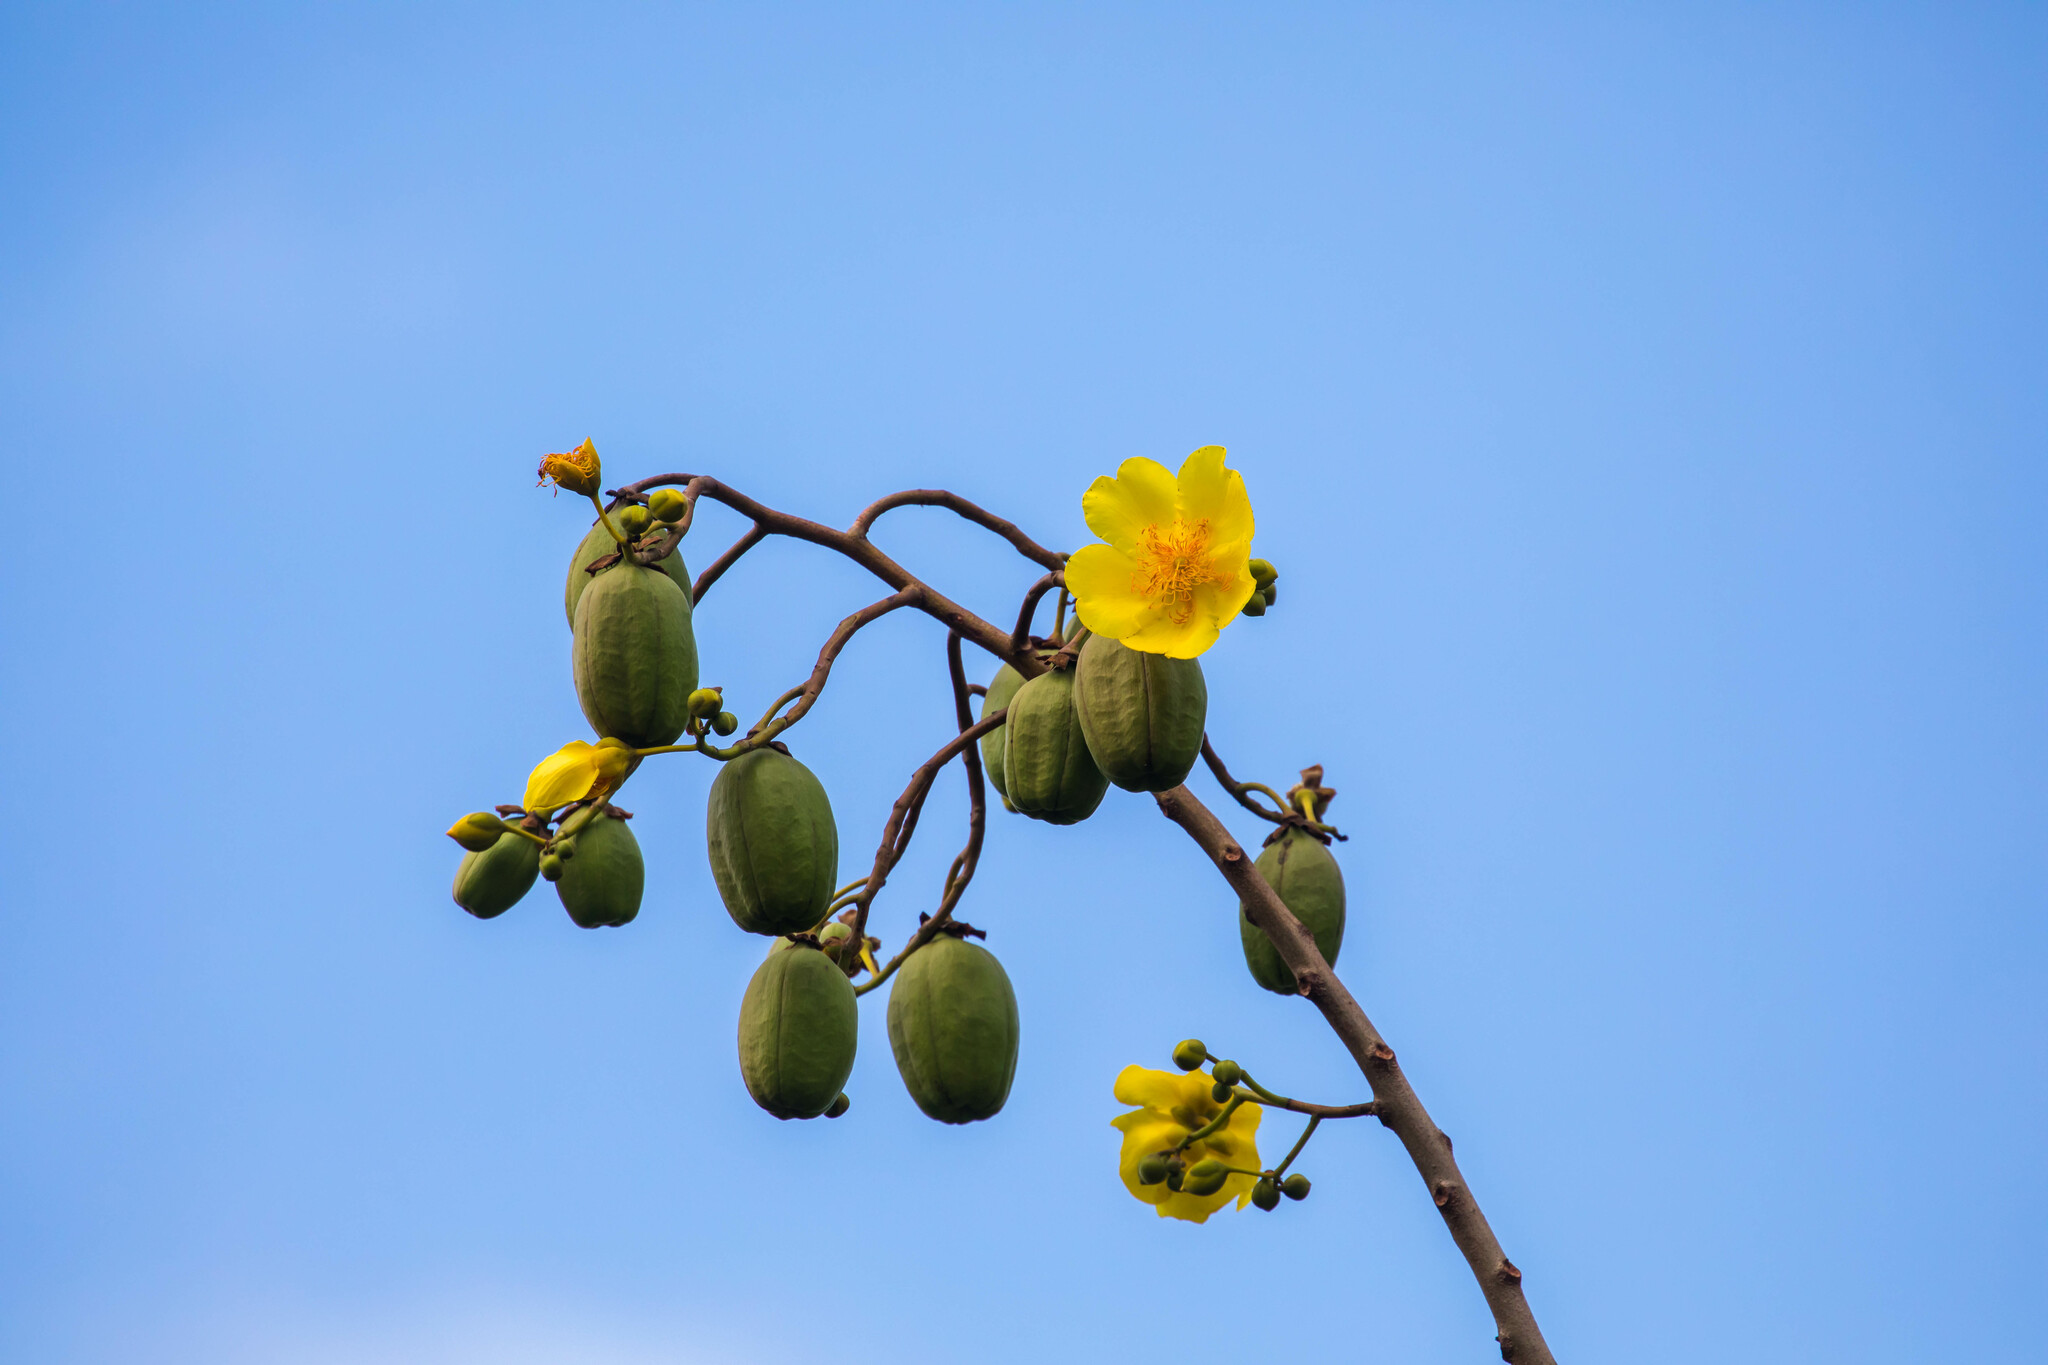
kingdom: Plantae
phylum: Tracheophyta
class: Magnoliopsida
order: Malvales
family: Cochlospermaceae
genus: Cochlospermum
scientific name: Cochlospermum vitifolium
